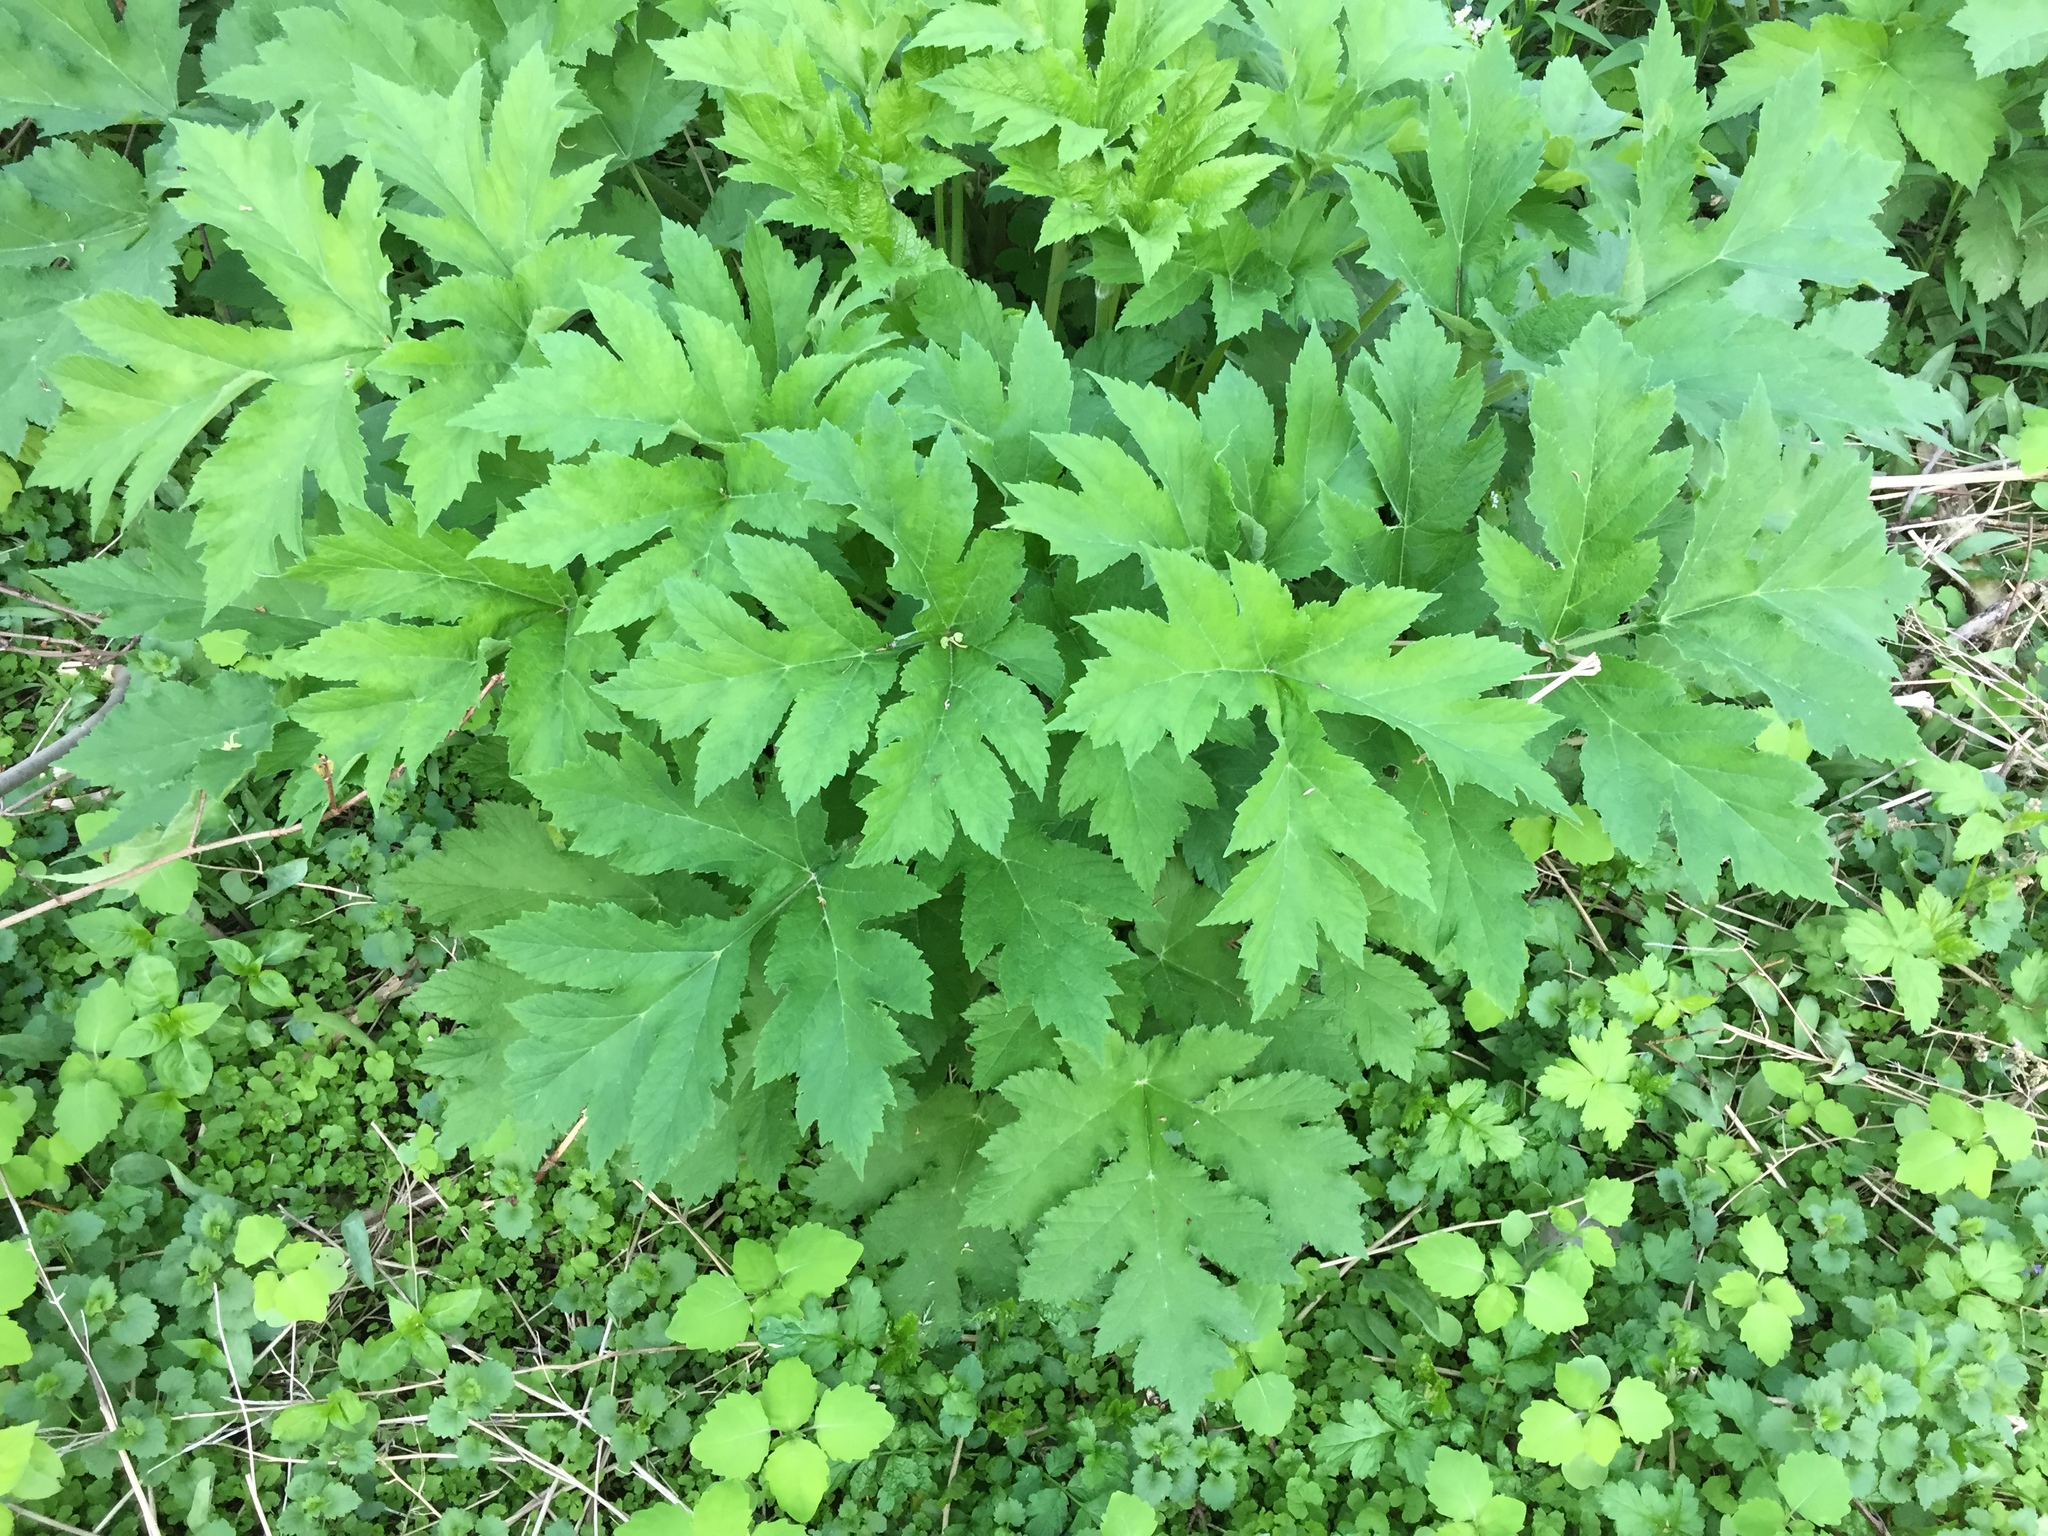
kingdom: Plantae
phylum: Tracheophyta
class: Magnoliopsida
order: Apiales
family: Apiaceae
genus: Heracleum
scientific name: Heracleum maximum
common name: American cow parsnip
